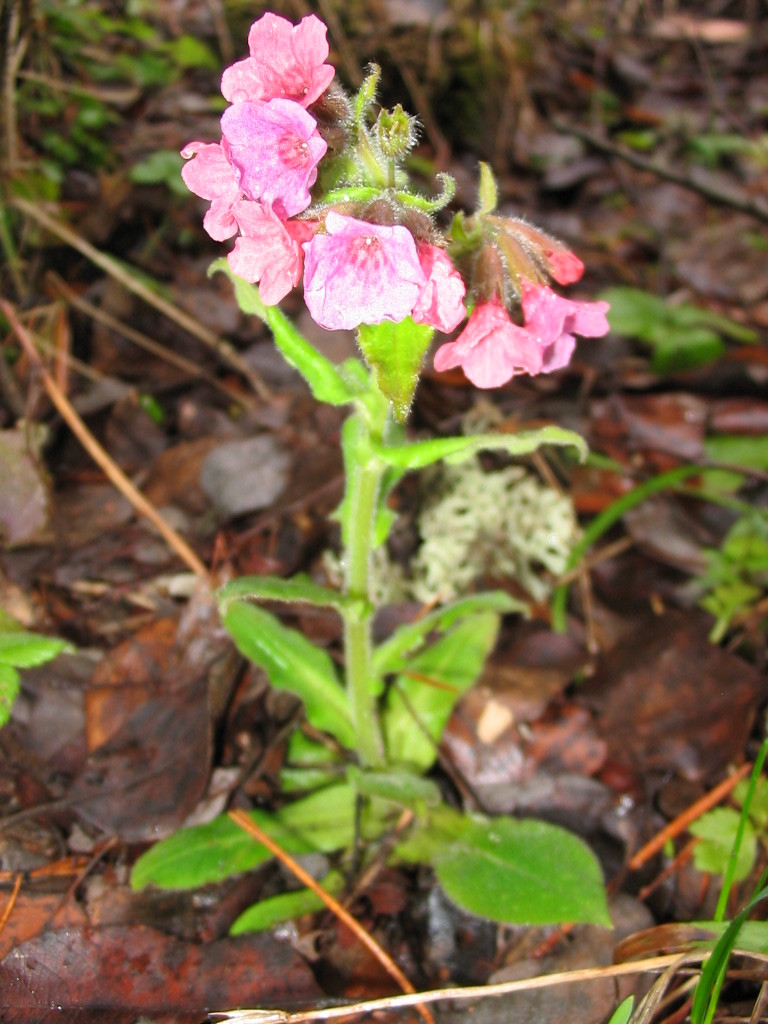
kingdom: Plantae
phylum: Tracheophyta
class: Magnoliopsida
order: Boraginales
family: Boraginaceae
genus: Pulmonaria
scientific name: Pulmonaria rubra
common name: Red lungwort
